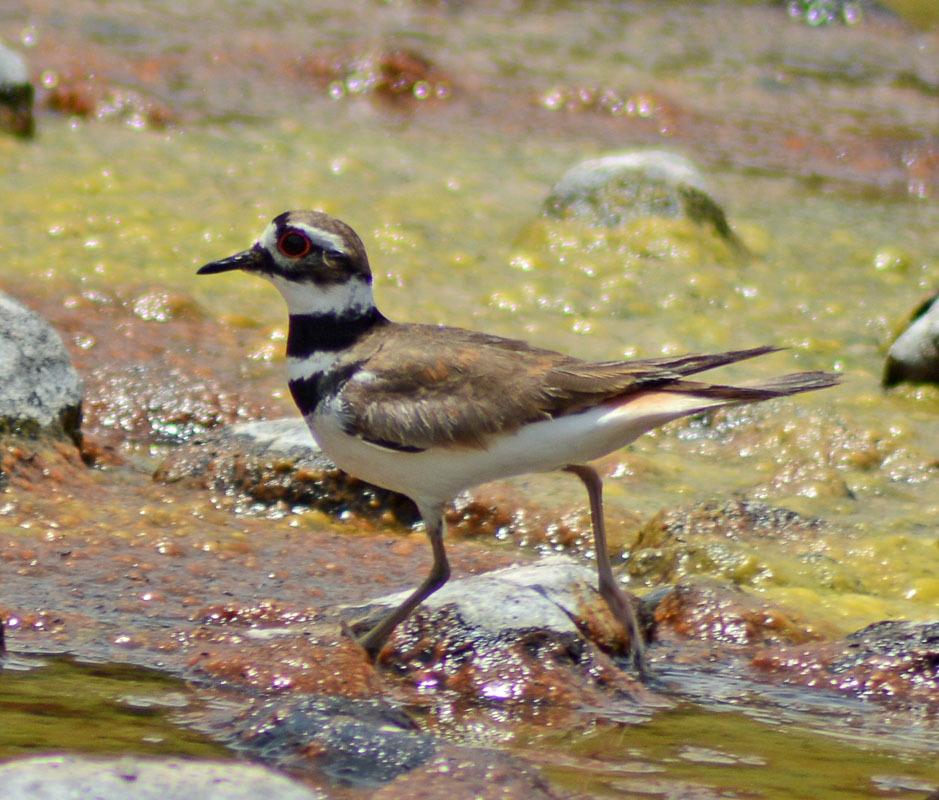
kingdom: Animalia
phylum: Chordata
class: Aves
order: Charadriiformes
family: Charadriidae
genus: Charadrius
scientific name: Charadrius vociferus
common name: Killdeer
